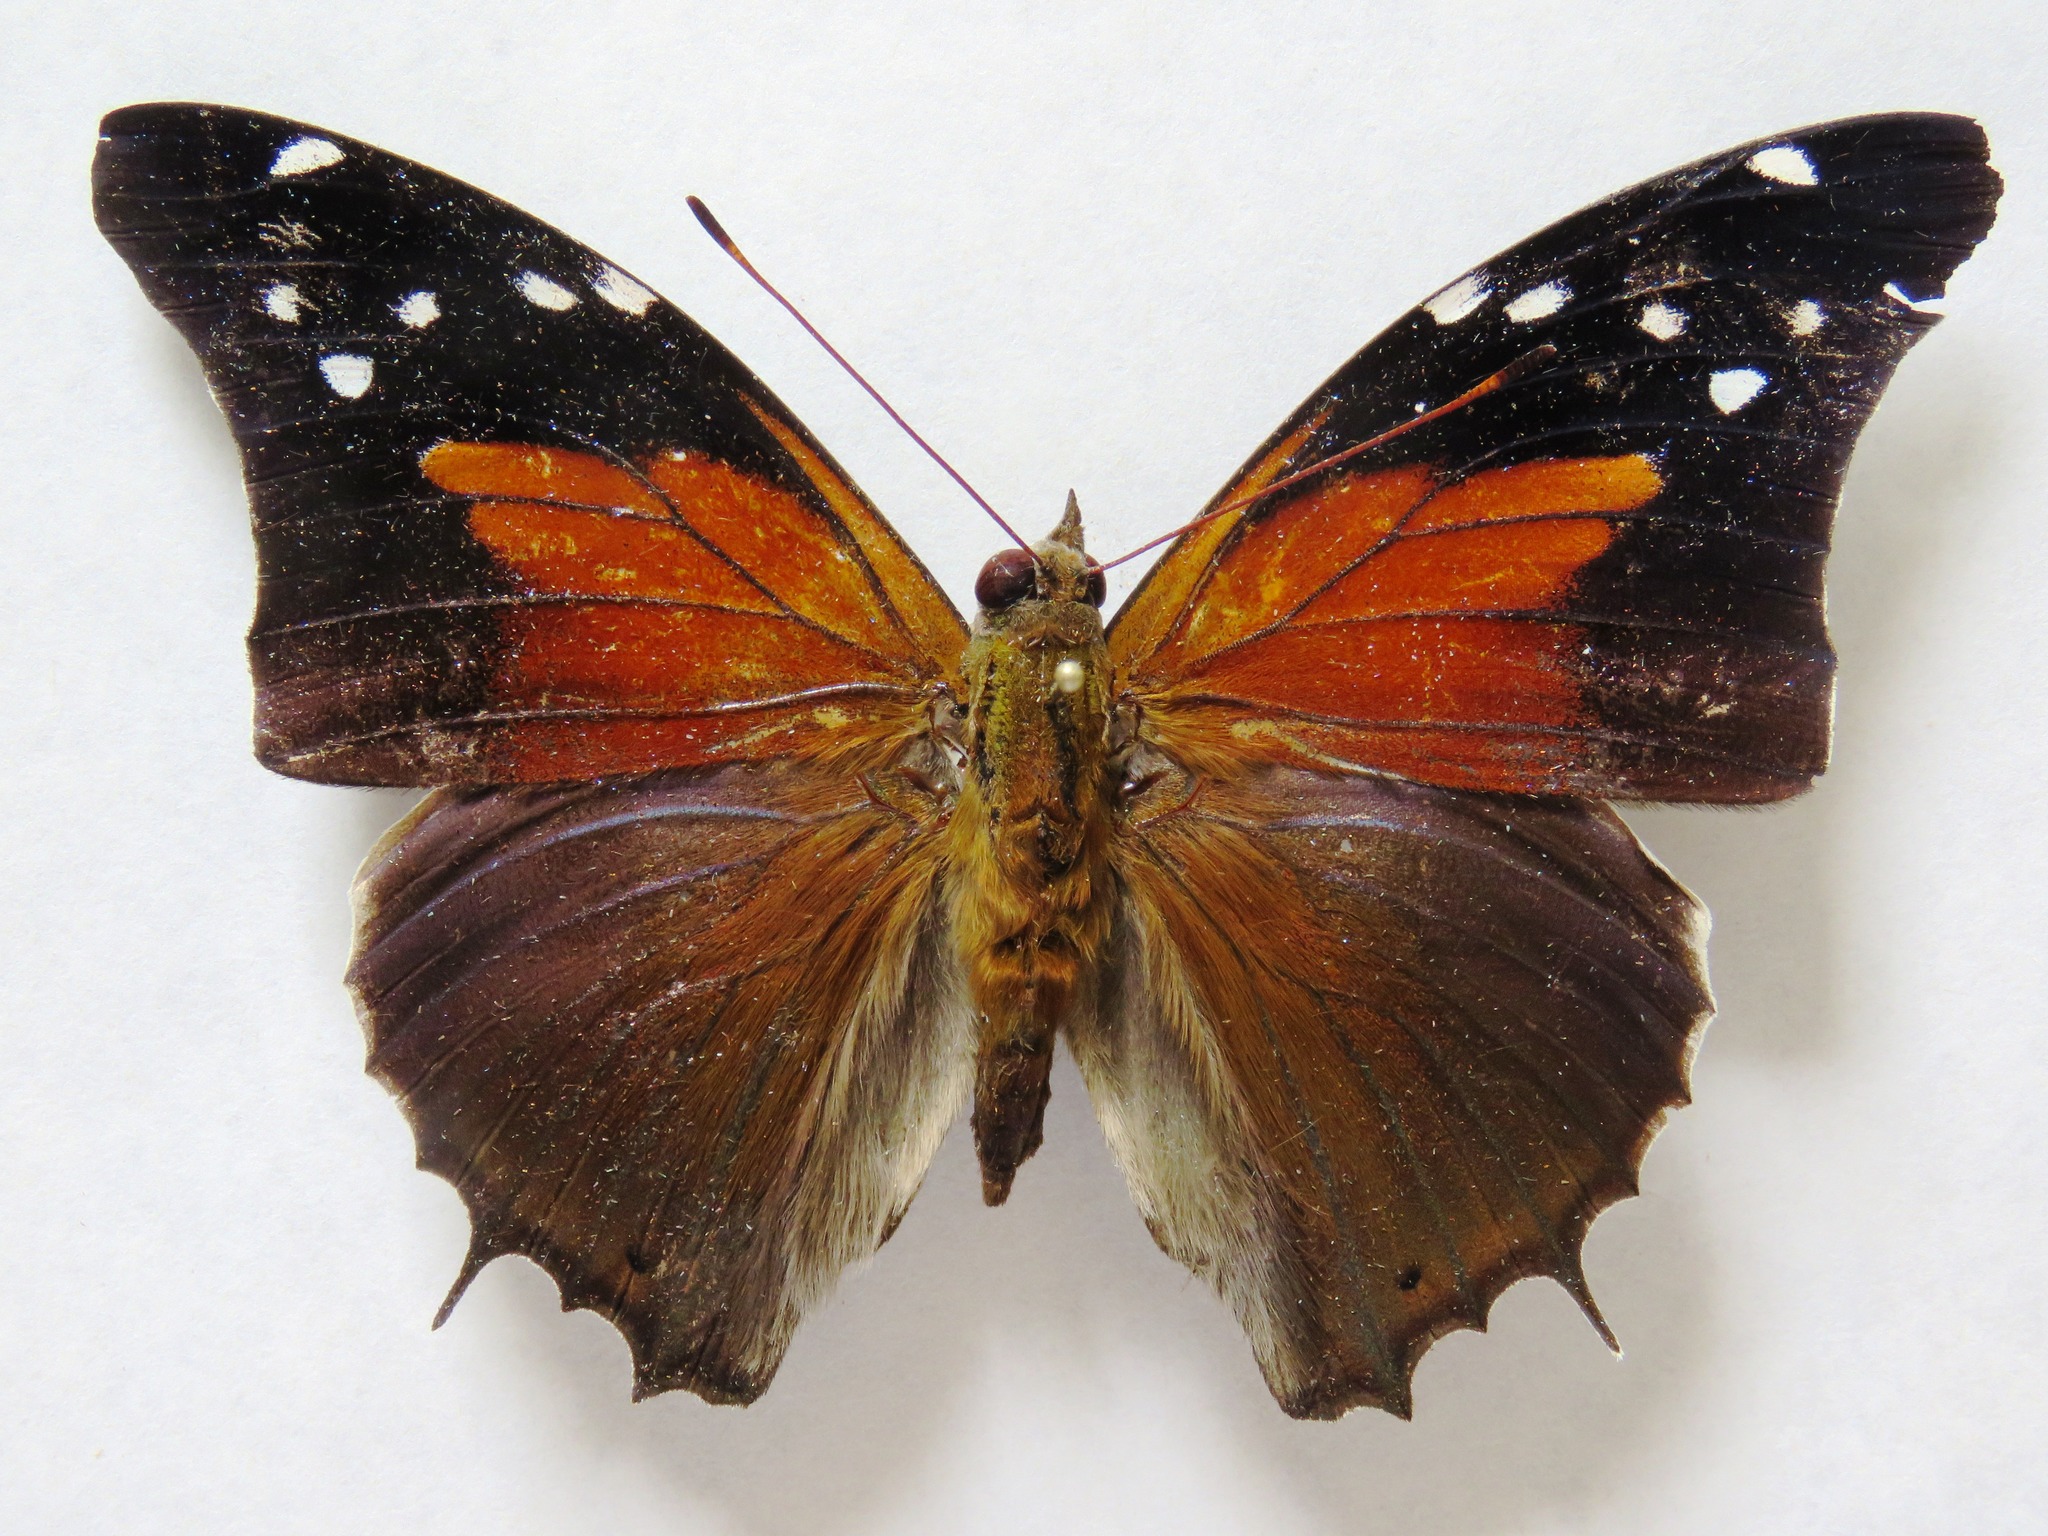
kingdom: Animalia
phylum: Arthropoda
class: Insecta
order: Lepidoptera
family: Nymphalidae
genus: Coea
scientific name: Coea acheronta
